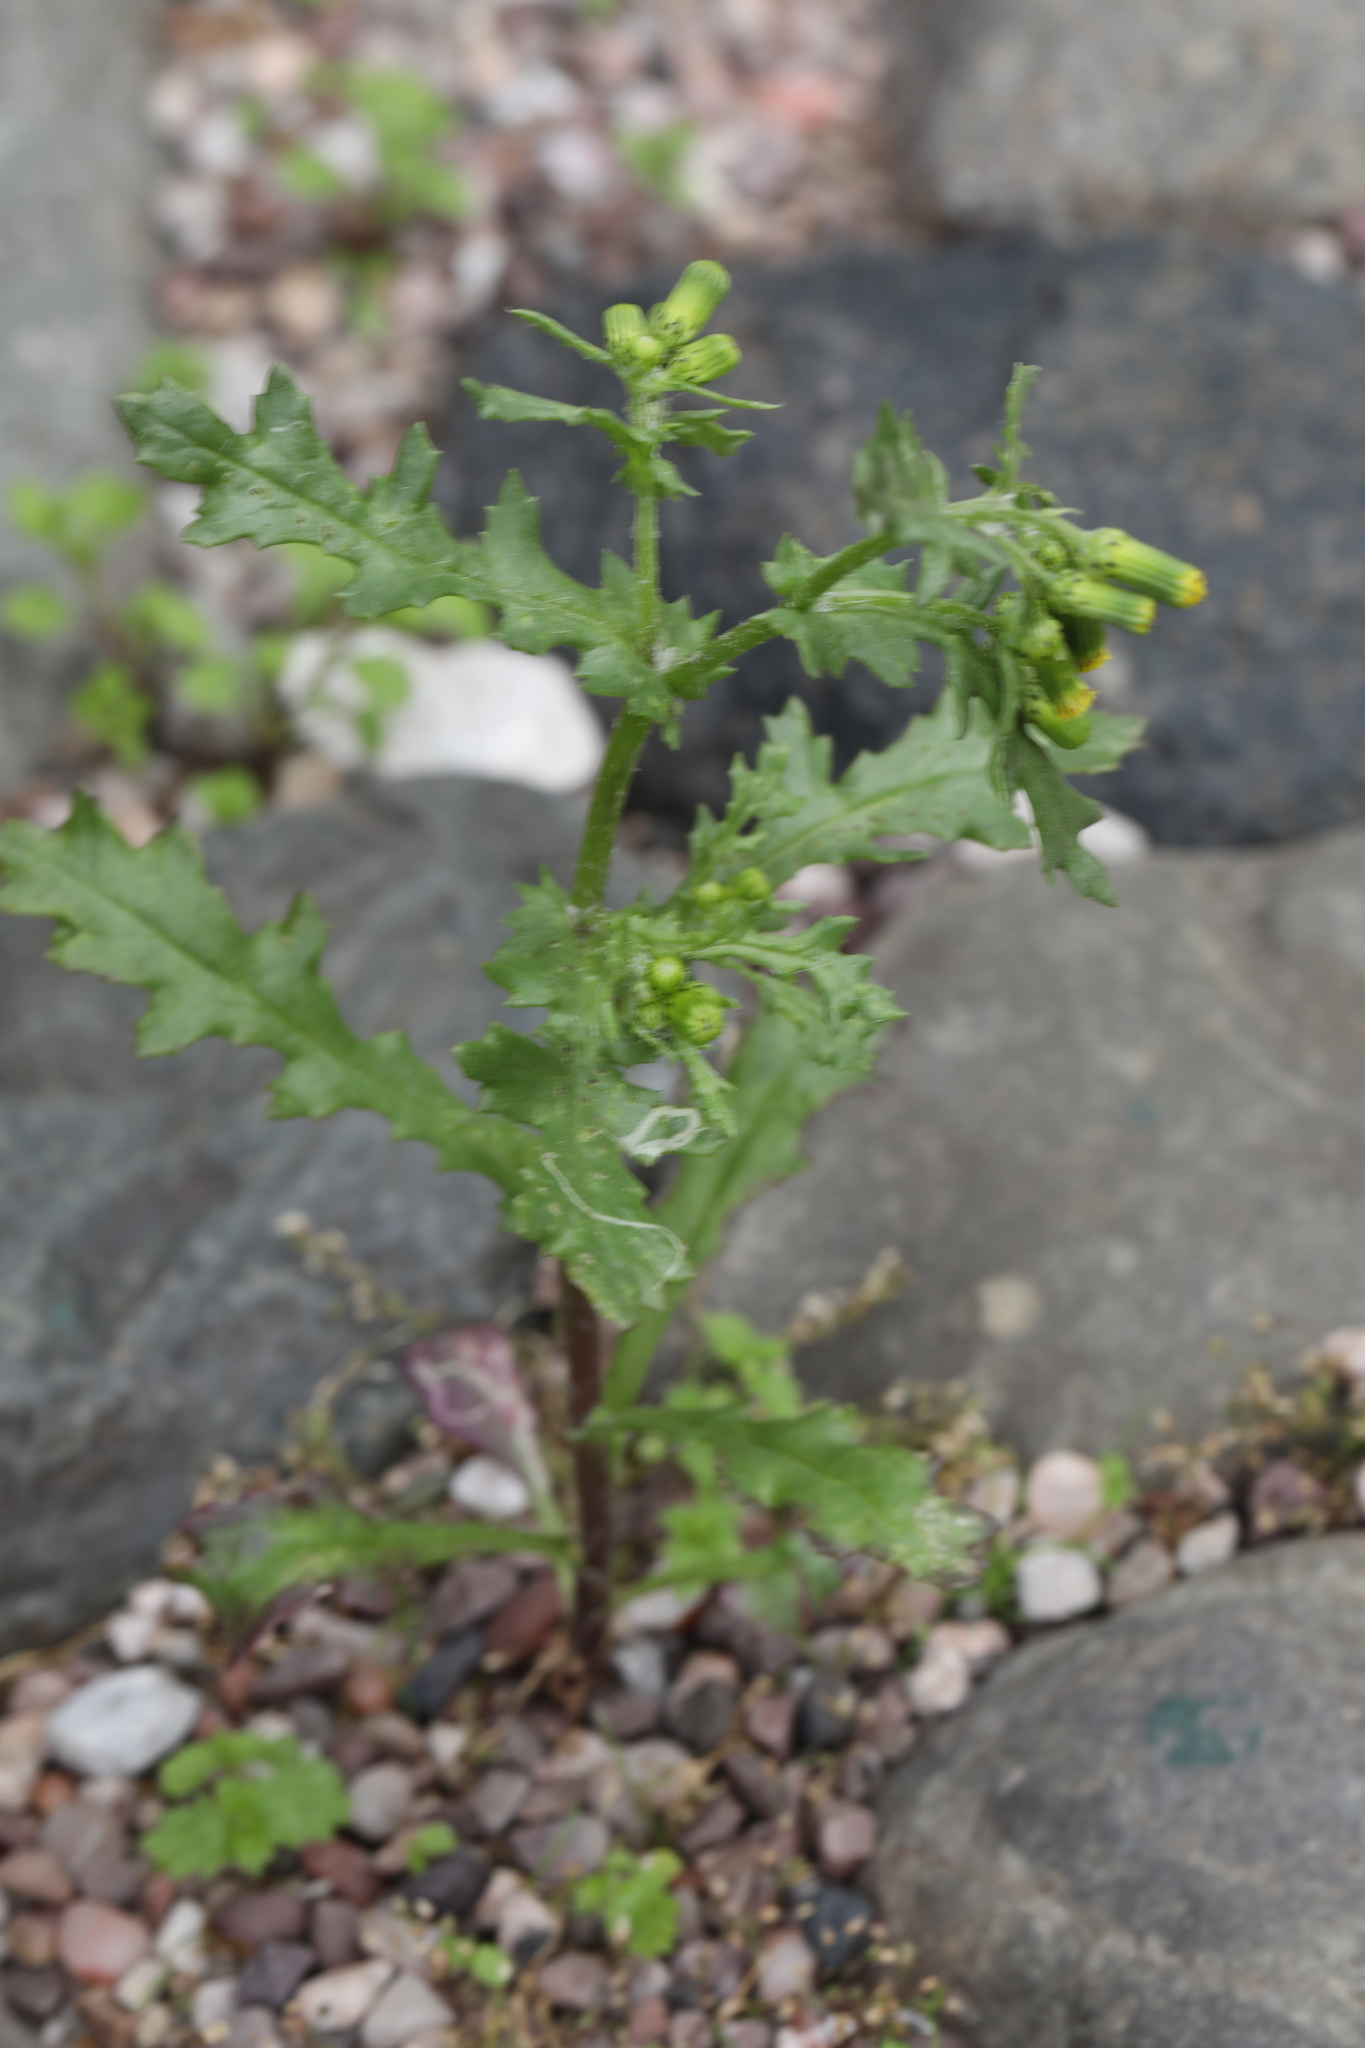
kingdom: Plantae
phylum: Tracheophyta
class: Magnoliopsida
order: Asterales
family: Asteraceae
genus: Senecio
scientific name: Senecio vulgaris
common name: Old-man-in-the-spring
